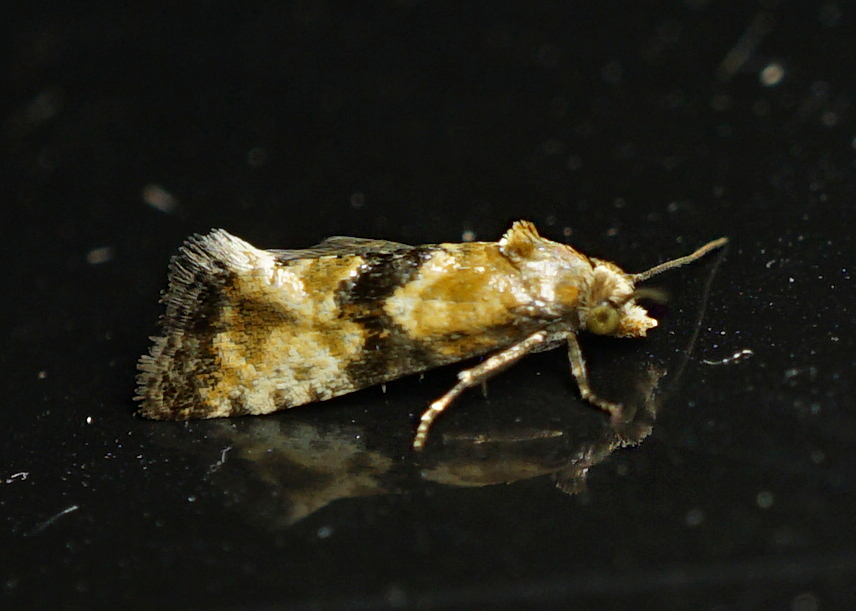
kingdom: Animalia
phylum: Arthropoda
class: Insecta
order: Lepidoptera
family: Tortricidae
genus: Eupoecilia
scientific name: Eupoecilia angustana
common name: Marbled conch
